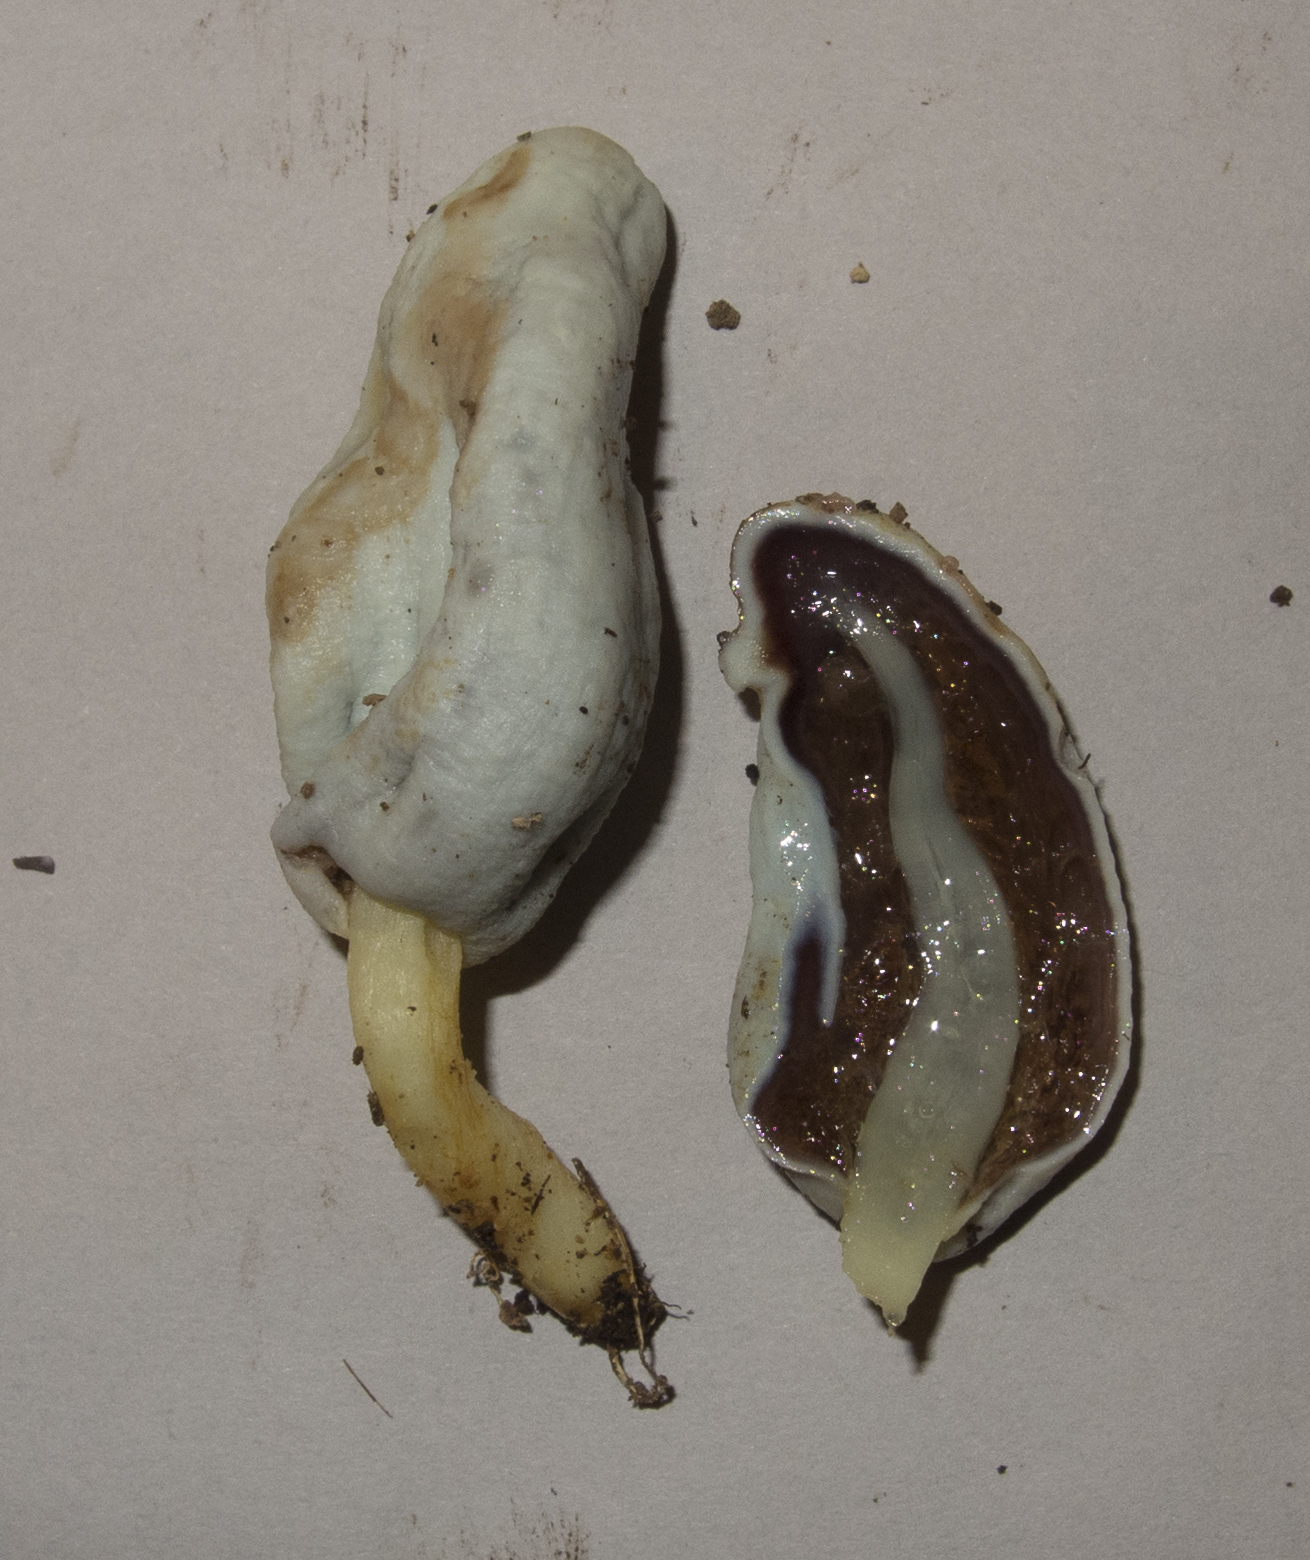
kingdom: Fungi
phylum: Basidiomycota
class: Agaricomycetes
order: Agaricales
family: Agaricaceae
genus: Clavogaster
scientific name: Clavogaster virescens
